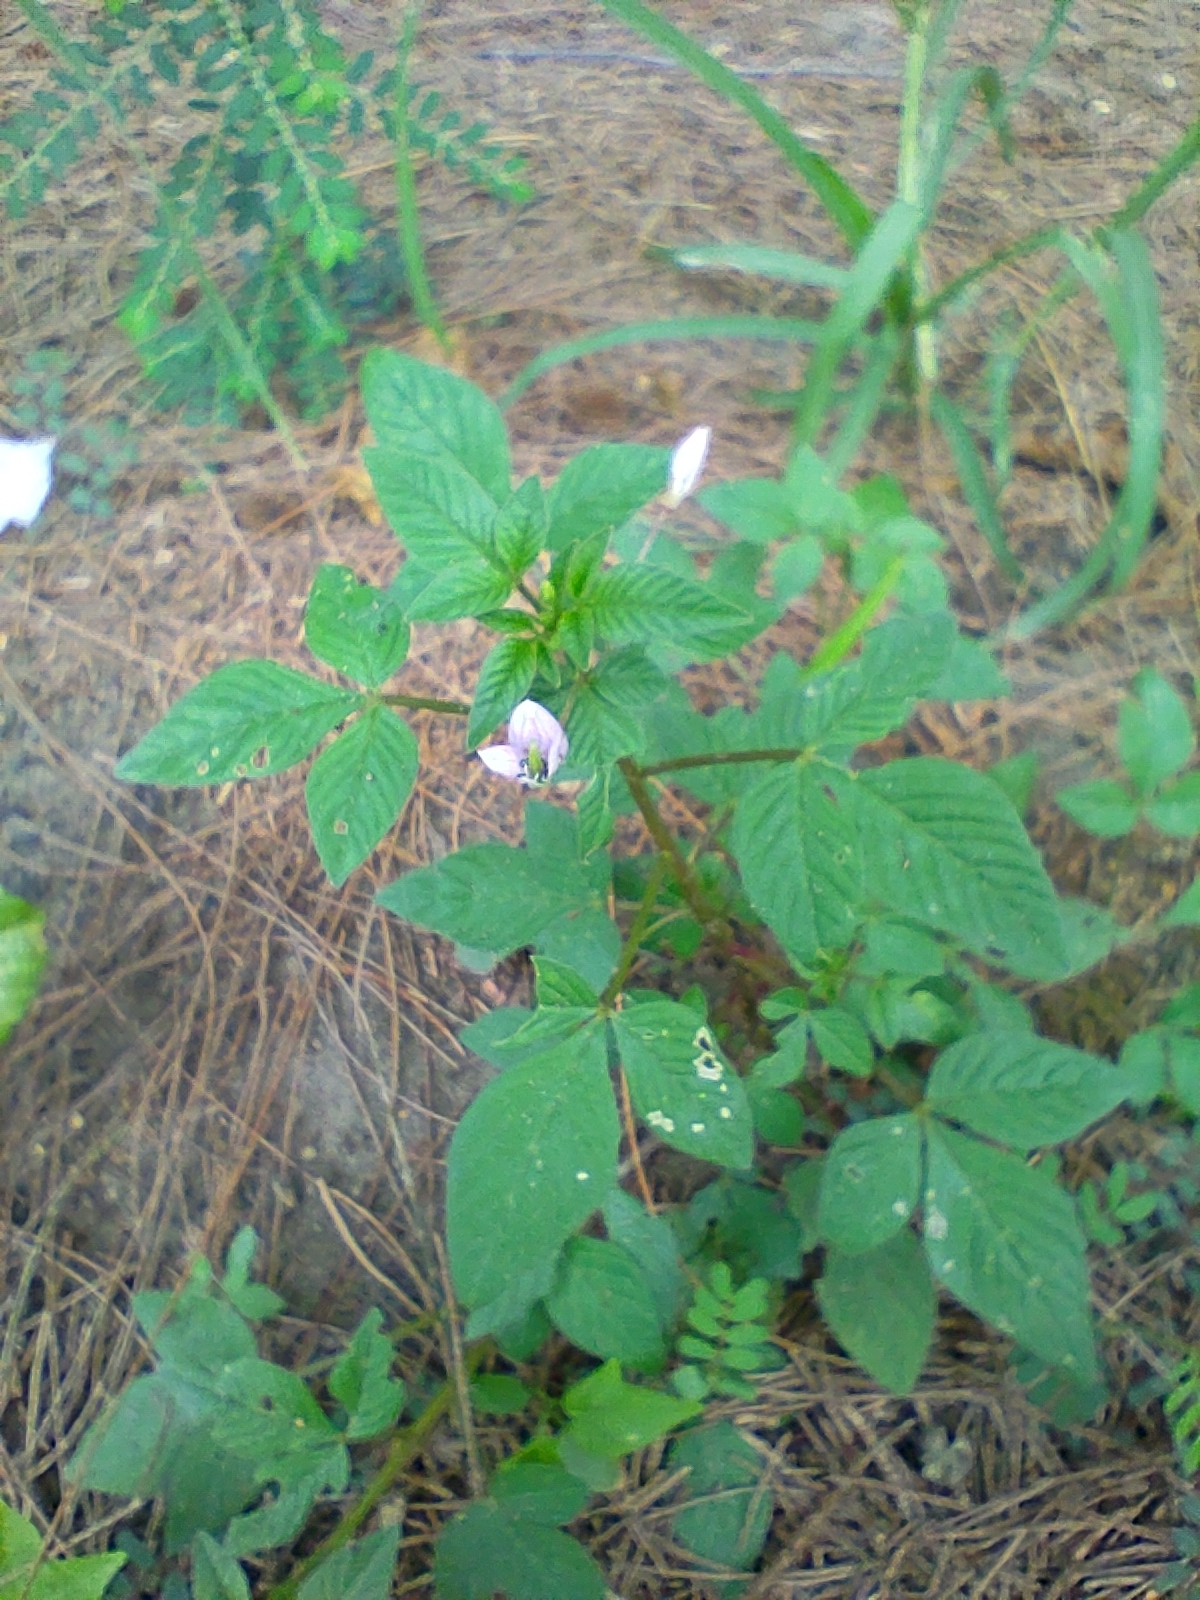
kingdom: Plantae
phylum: Tracheophyta
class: Magnoliopsida
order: Brassicales
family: Cleomaceae
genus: Sieruela
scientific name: Sieruela rutidosperma
